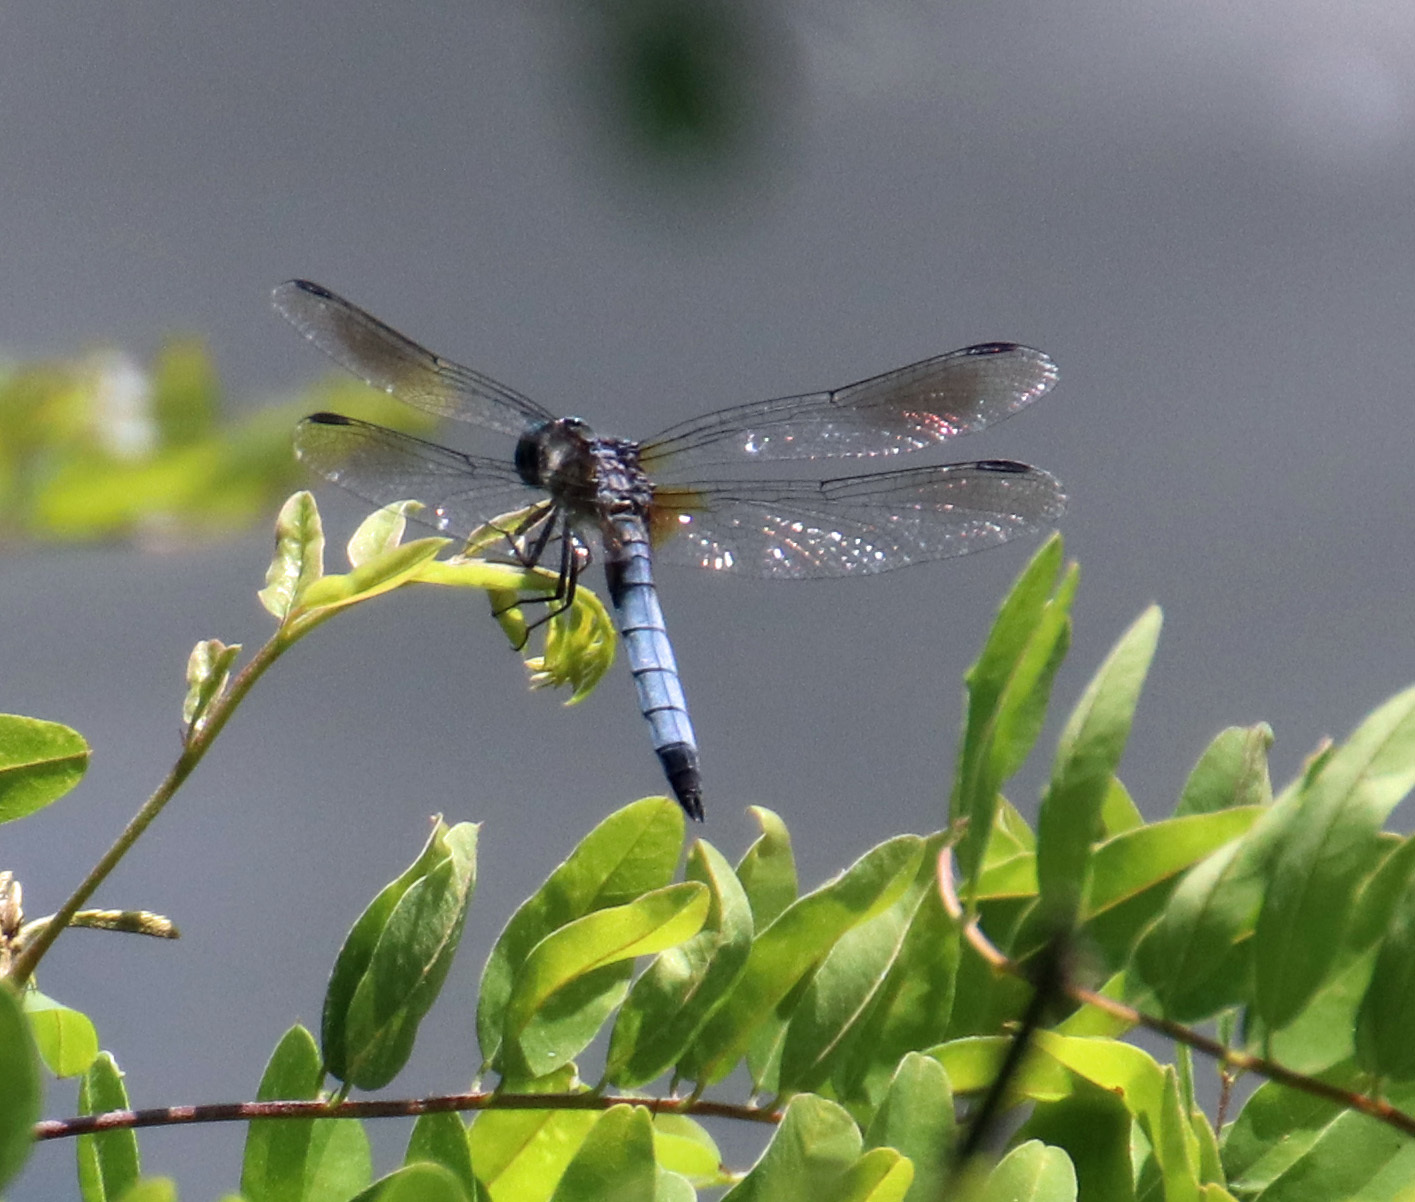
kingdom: Animalia
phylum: Arthropoda
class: Insecta
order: Odonata
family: Libellulidae
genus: Pachydiplax
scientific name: Pachydiplax longipennis
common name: Blue dasher
